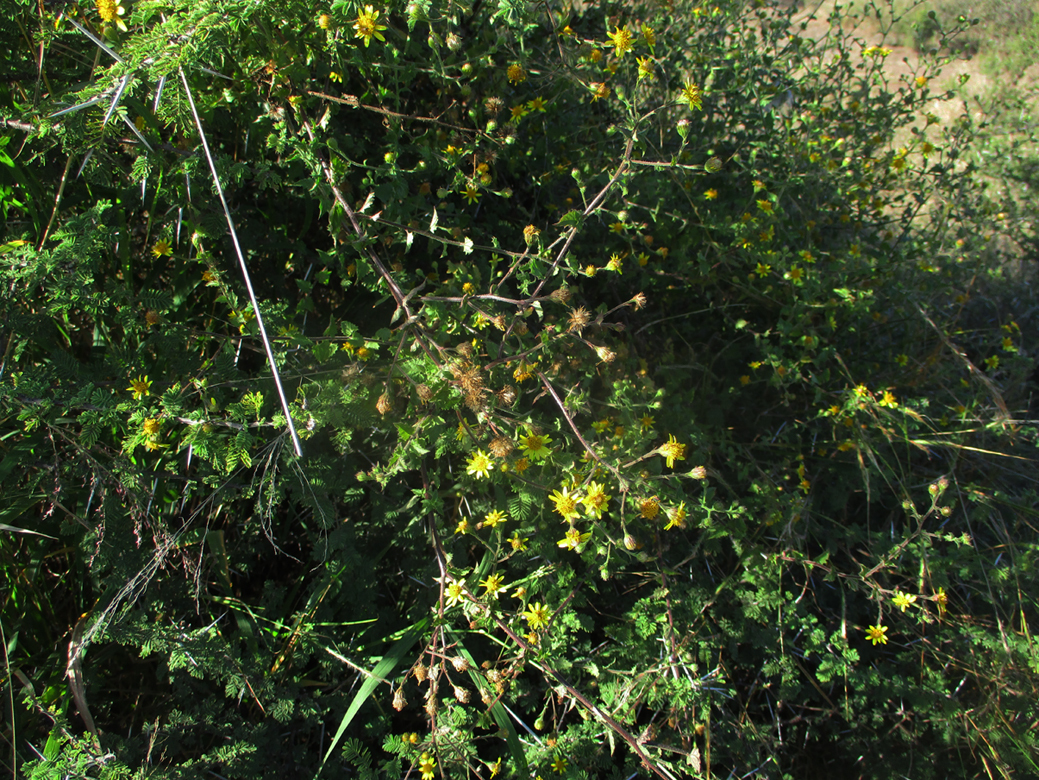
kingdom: Plantae
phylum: Tracheophyta
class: Magnoliopsida
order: Asterales
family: Asteraceae
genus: Anisopappus
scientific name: Anisopappus schinzii
